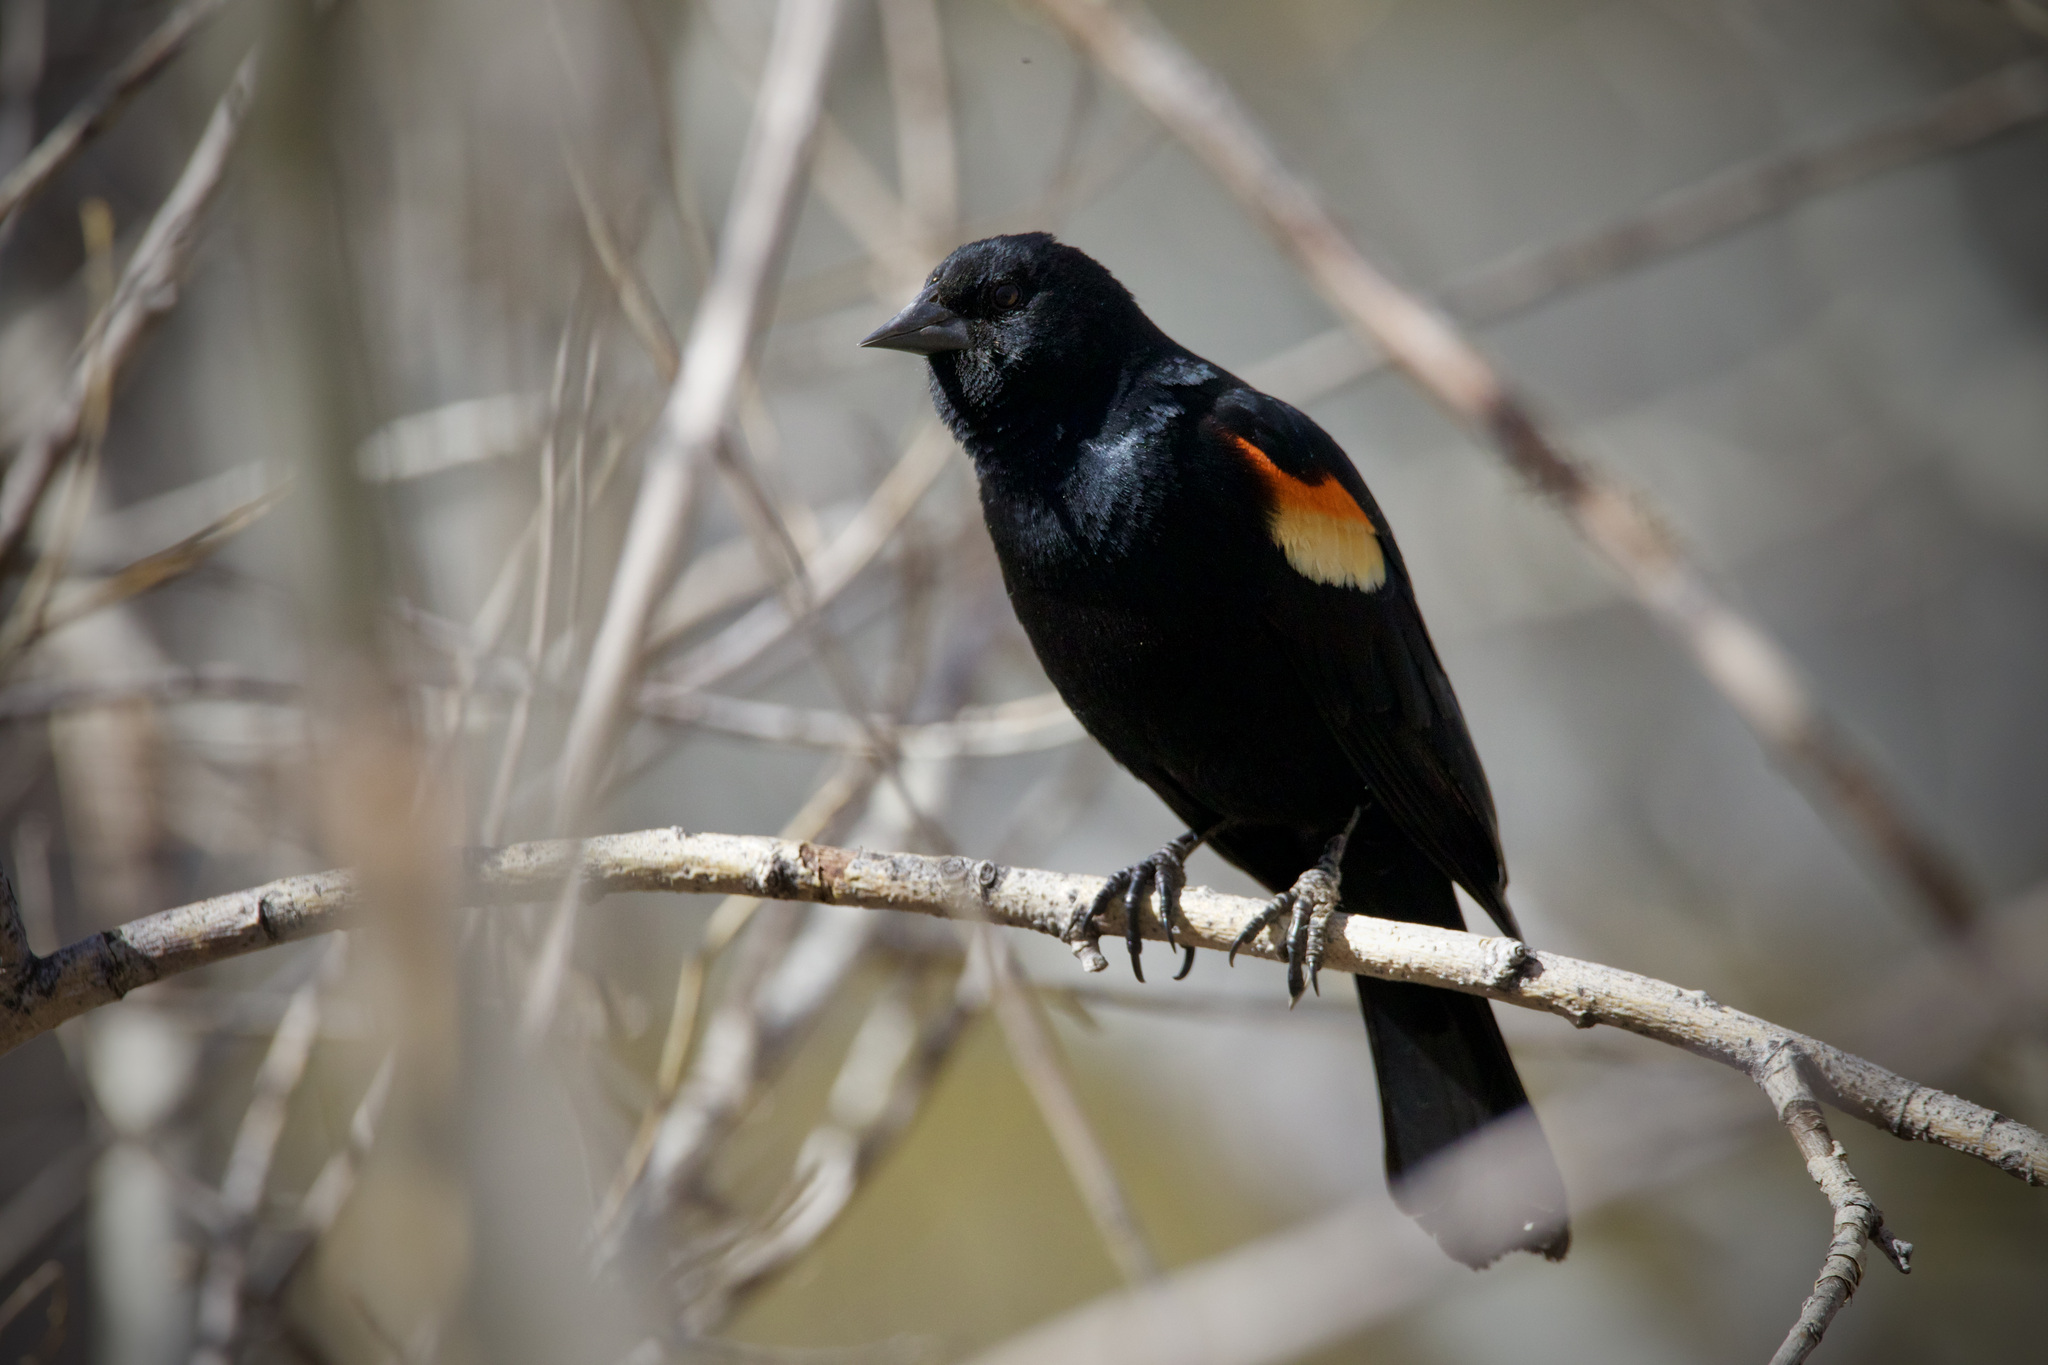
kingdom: Animalia
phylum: Chordata
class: Aves
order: Passeriformes
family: Icteridae
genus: Agelaius
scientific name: Agelaius phoeniceus
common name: Red-winged blackbird
